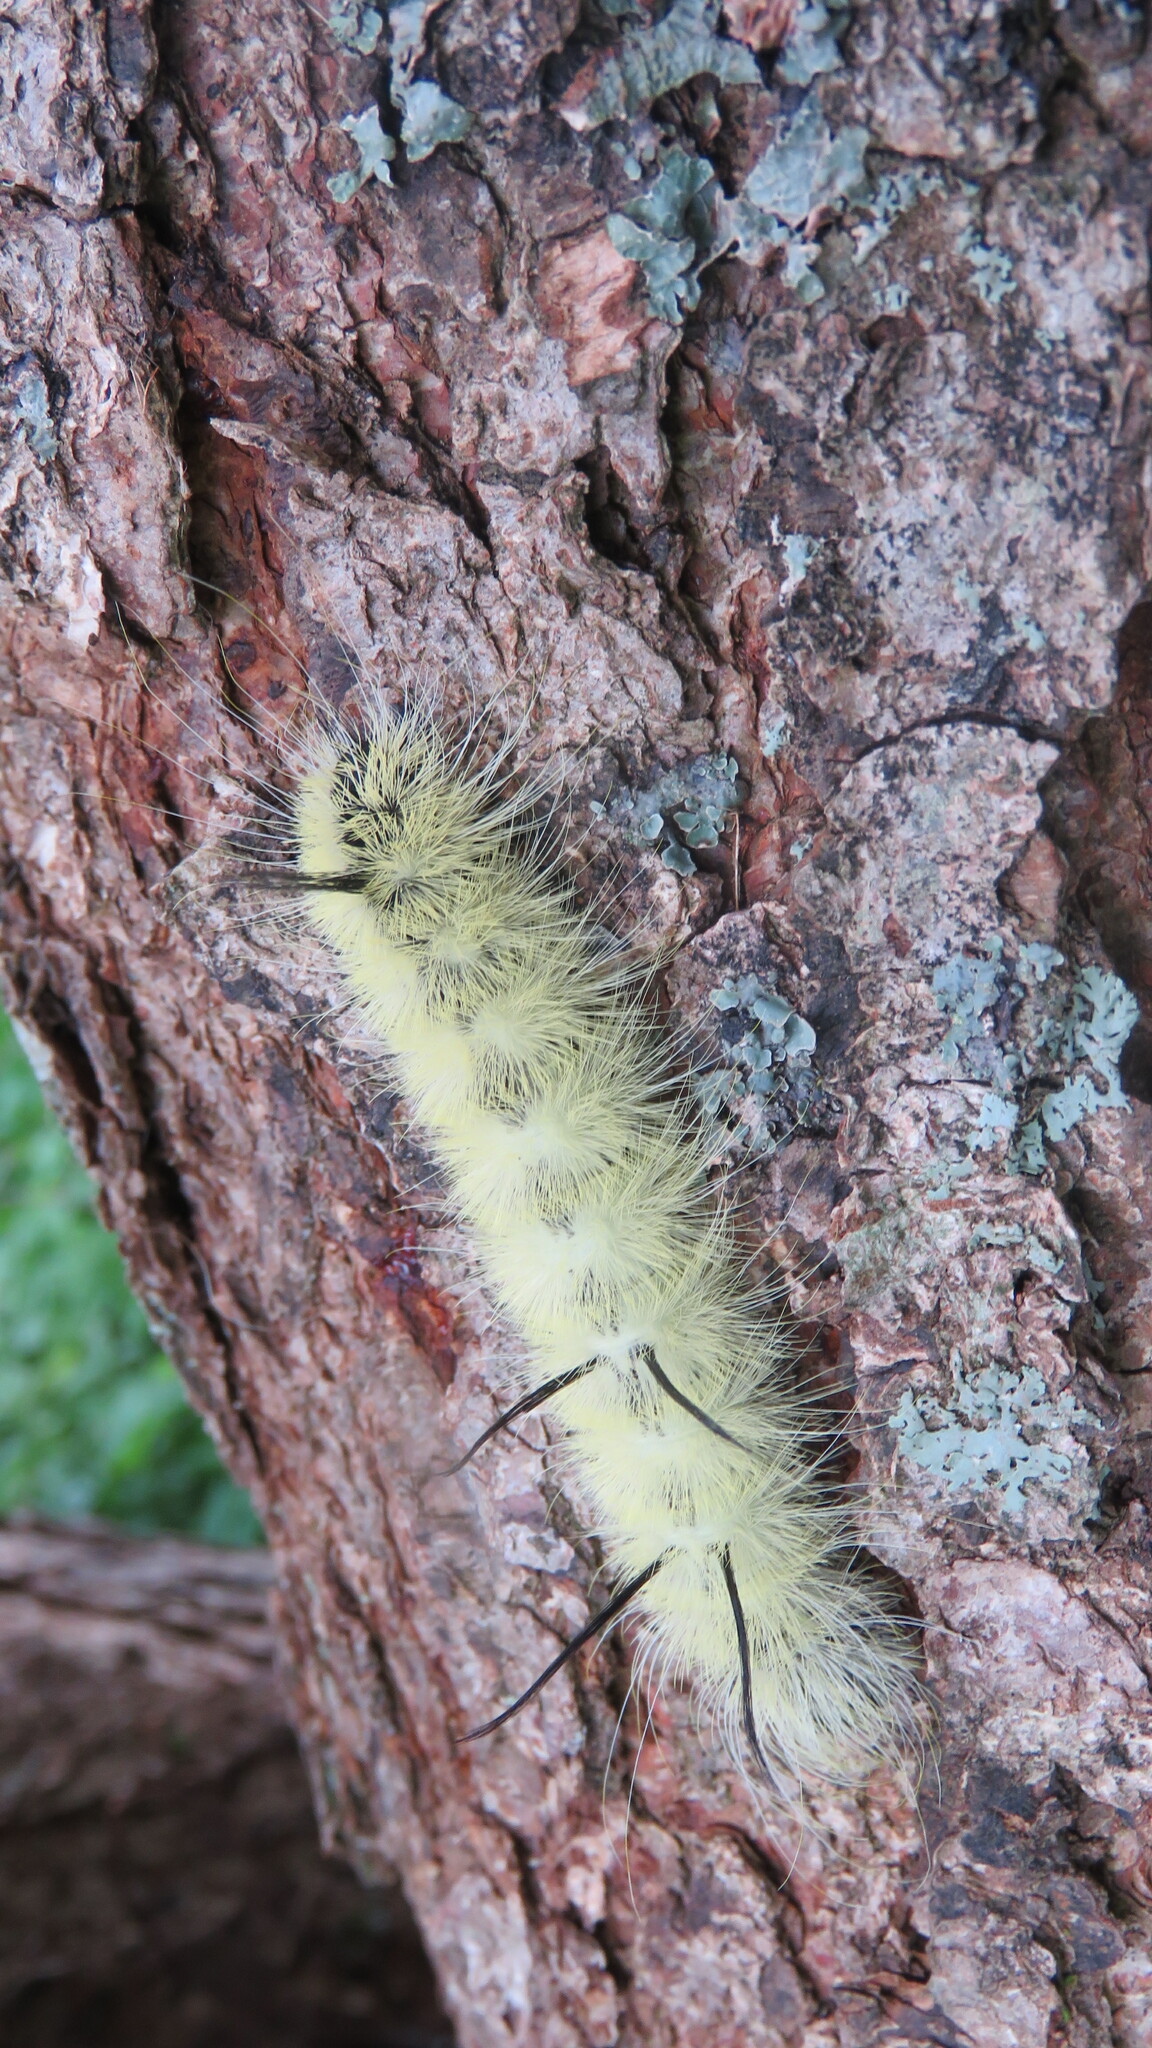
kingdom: Animalia
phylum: Arthropoda
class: Insecta
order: Lepidoptera
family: Noctuidae
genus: Acronicta
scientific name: Acronicta americana
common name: American dagger
